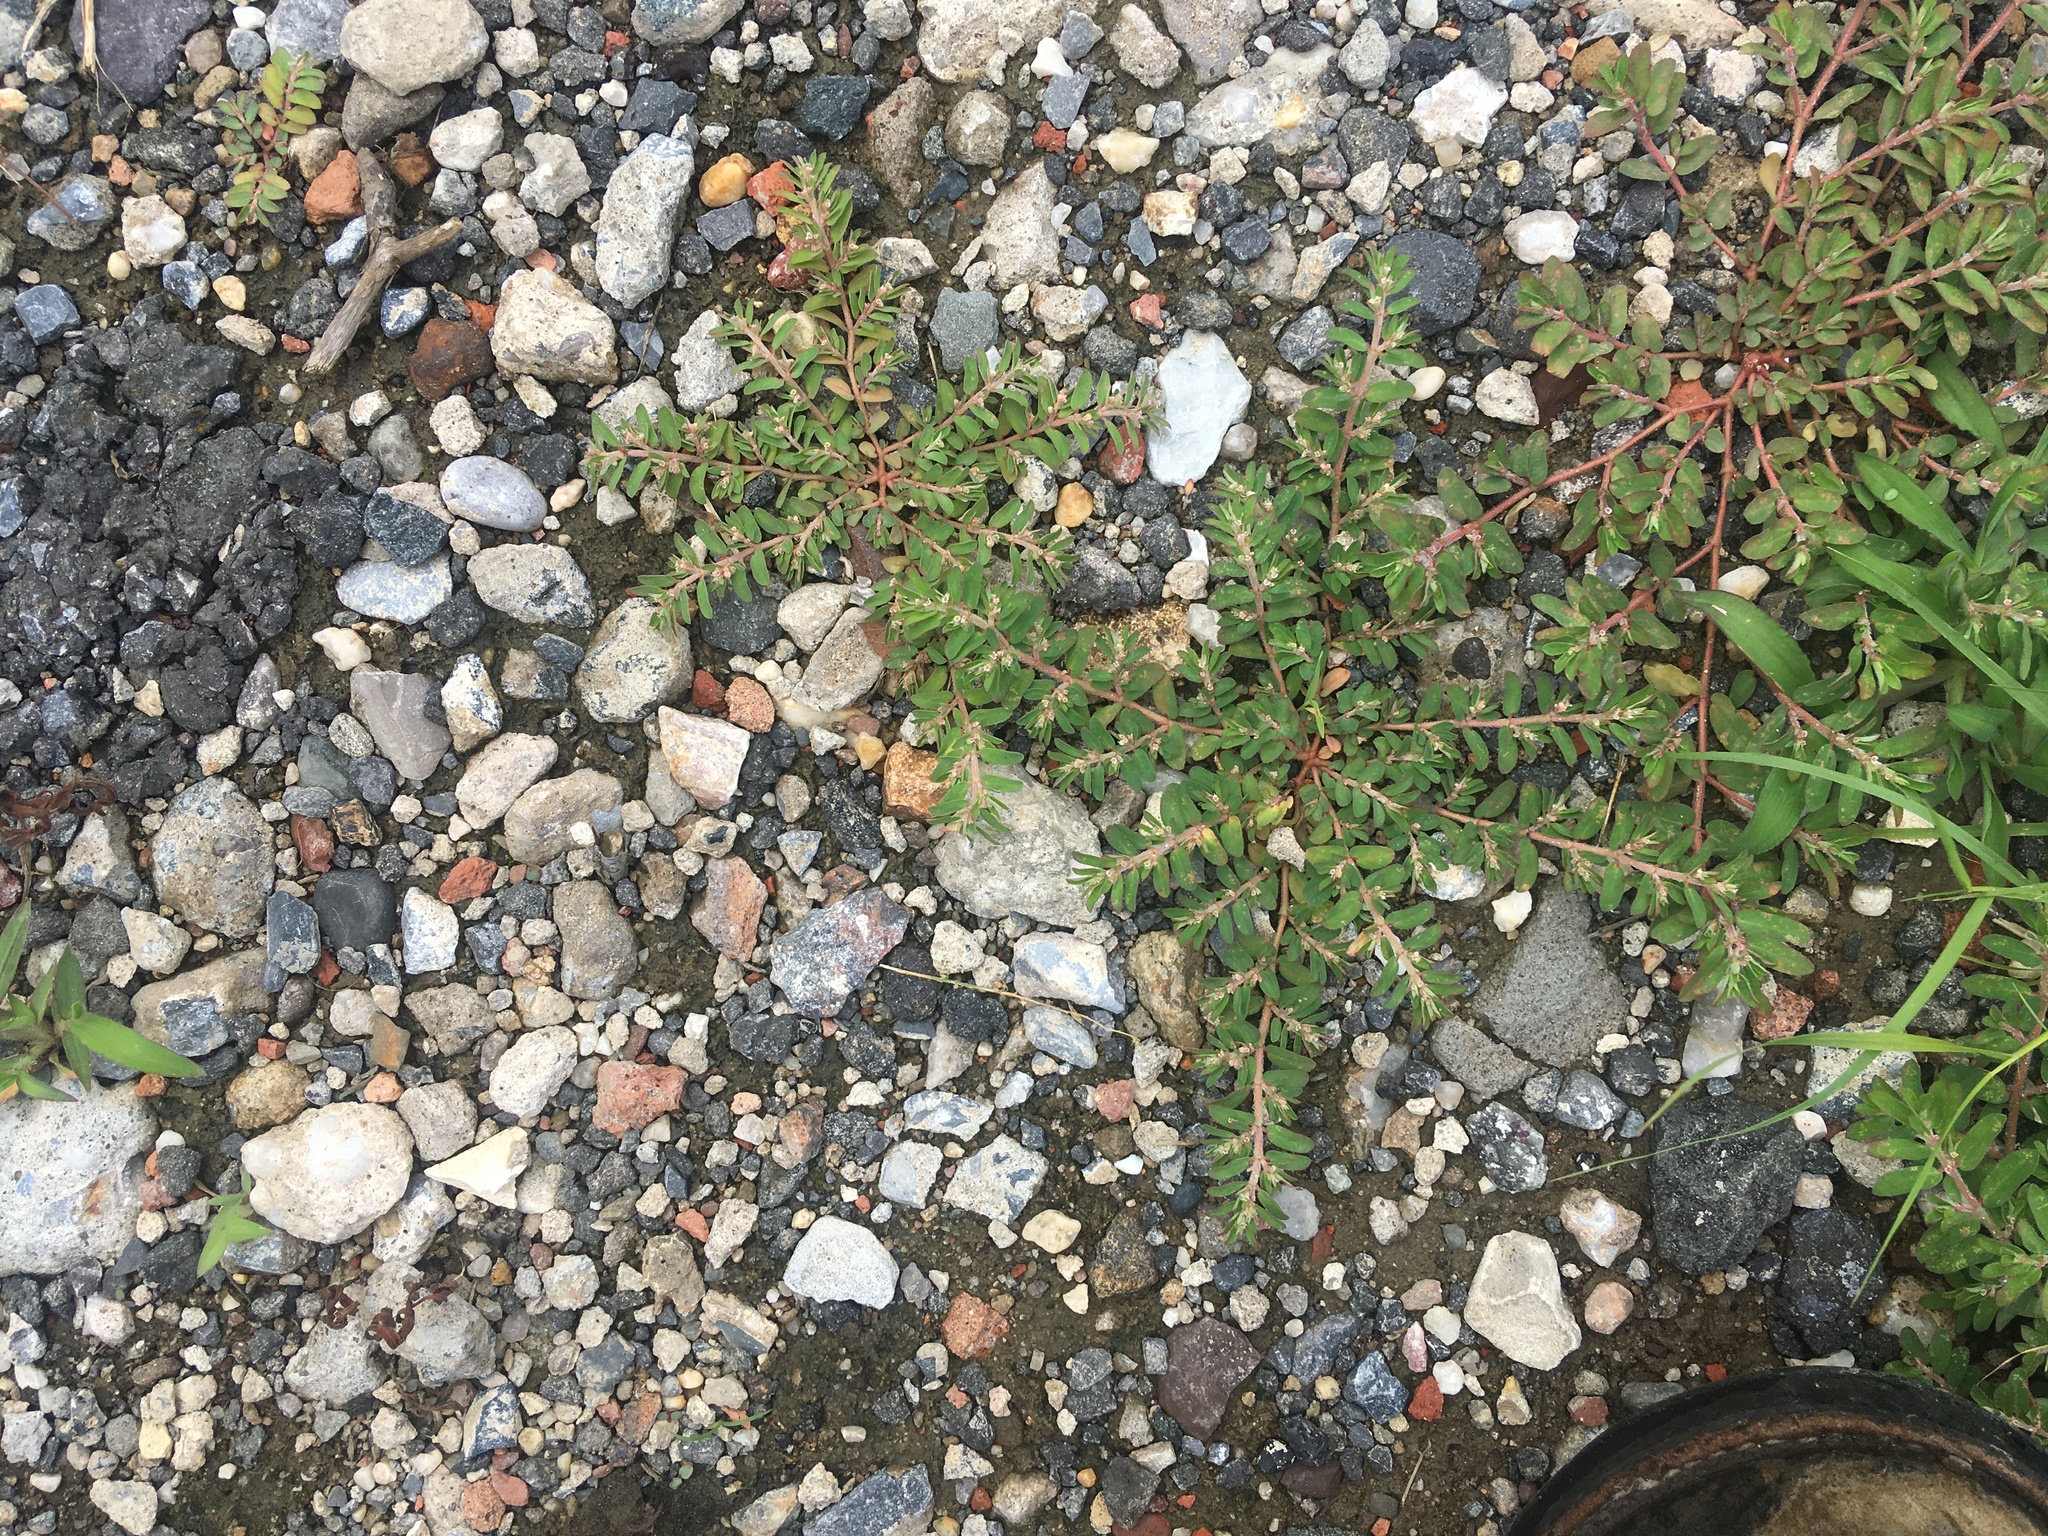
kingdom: Plantae
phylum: Tracheophyta
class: Magnoliopsida
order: Malpighiales
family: Euphorbiaceae
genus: Euphorbia
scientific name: Euphorbia maculata
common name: Spotted spurge
